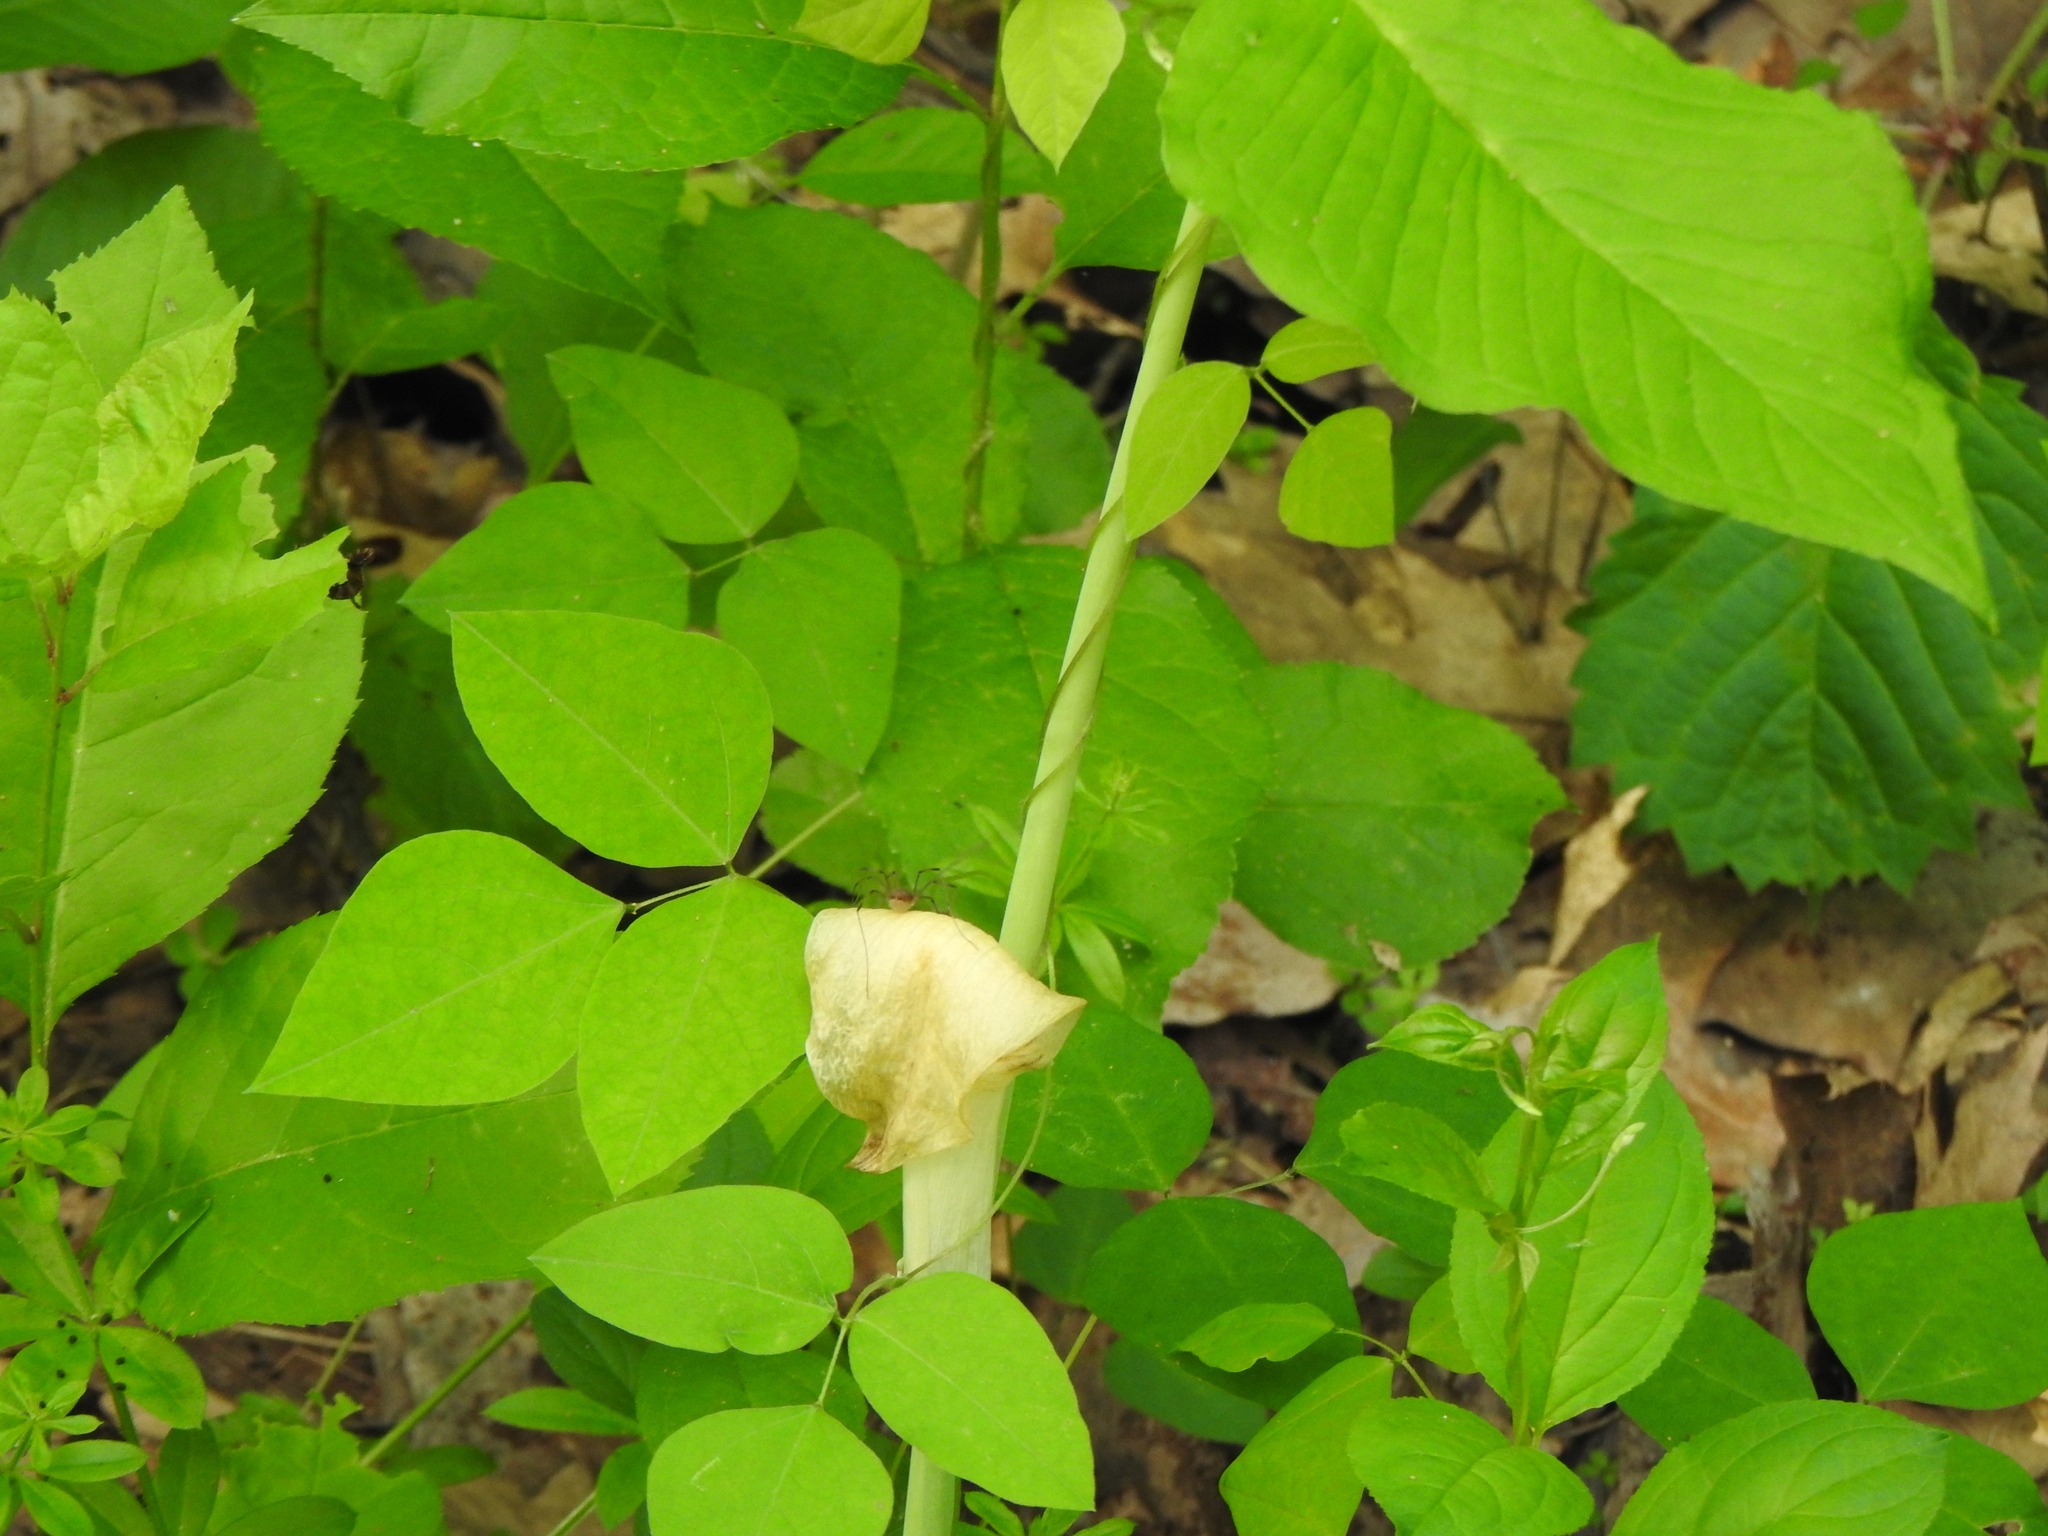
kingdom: Plantae
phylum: Tracheophyta
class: Liliopsida
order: Alismatales
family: Araceae
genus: Arisaema
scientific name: Arisaema triphyllum
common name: Jack-in-the-pulpit
